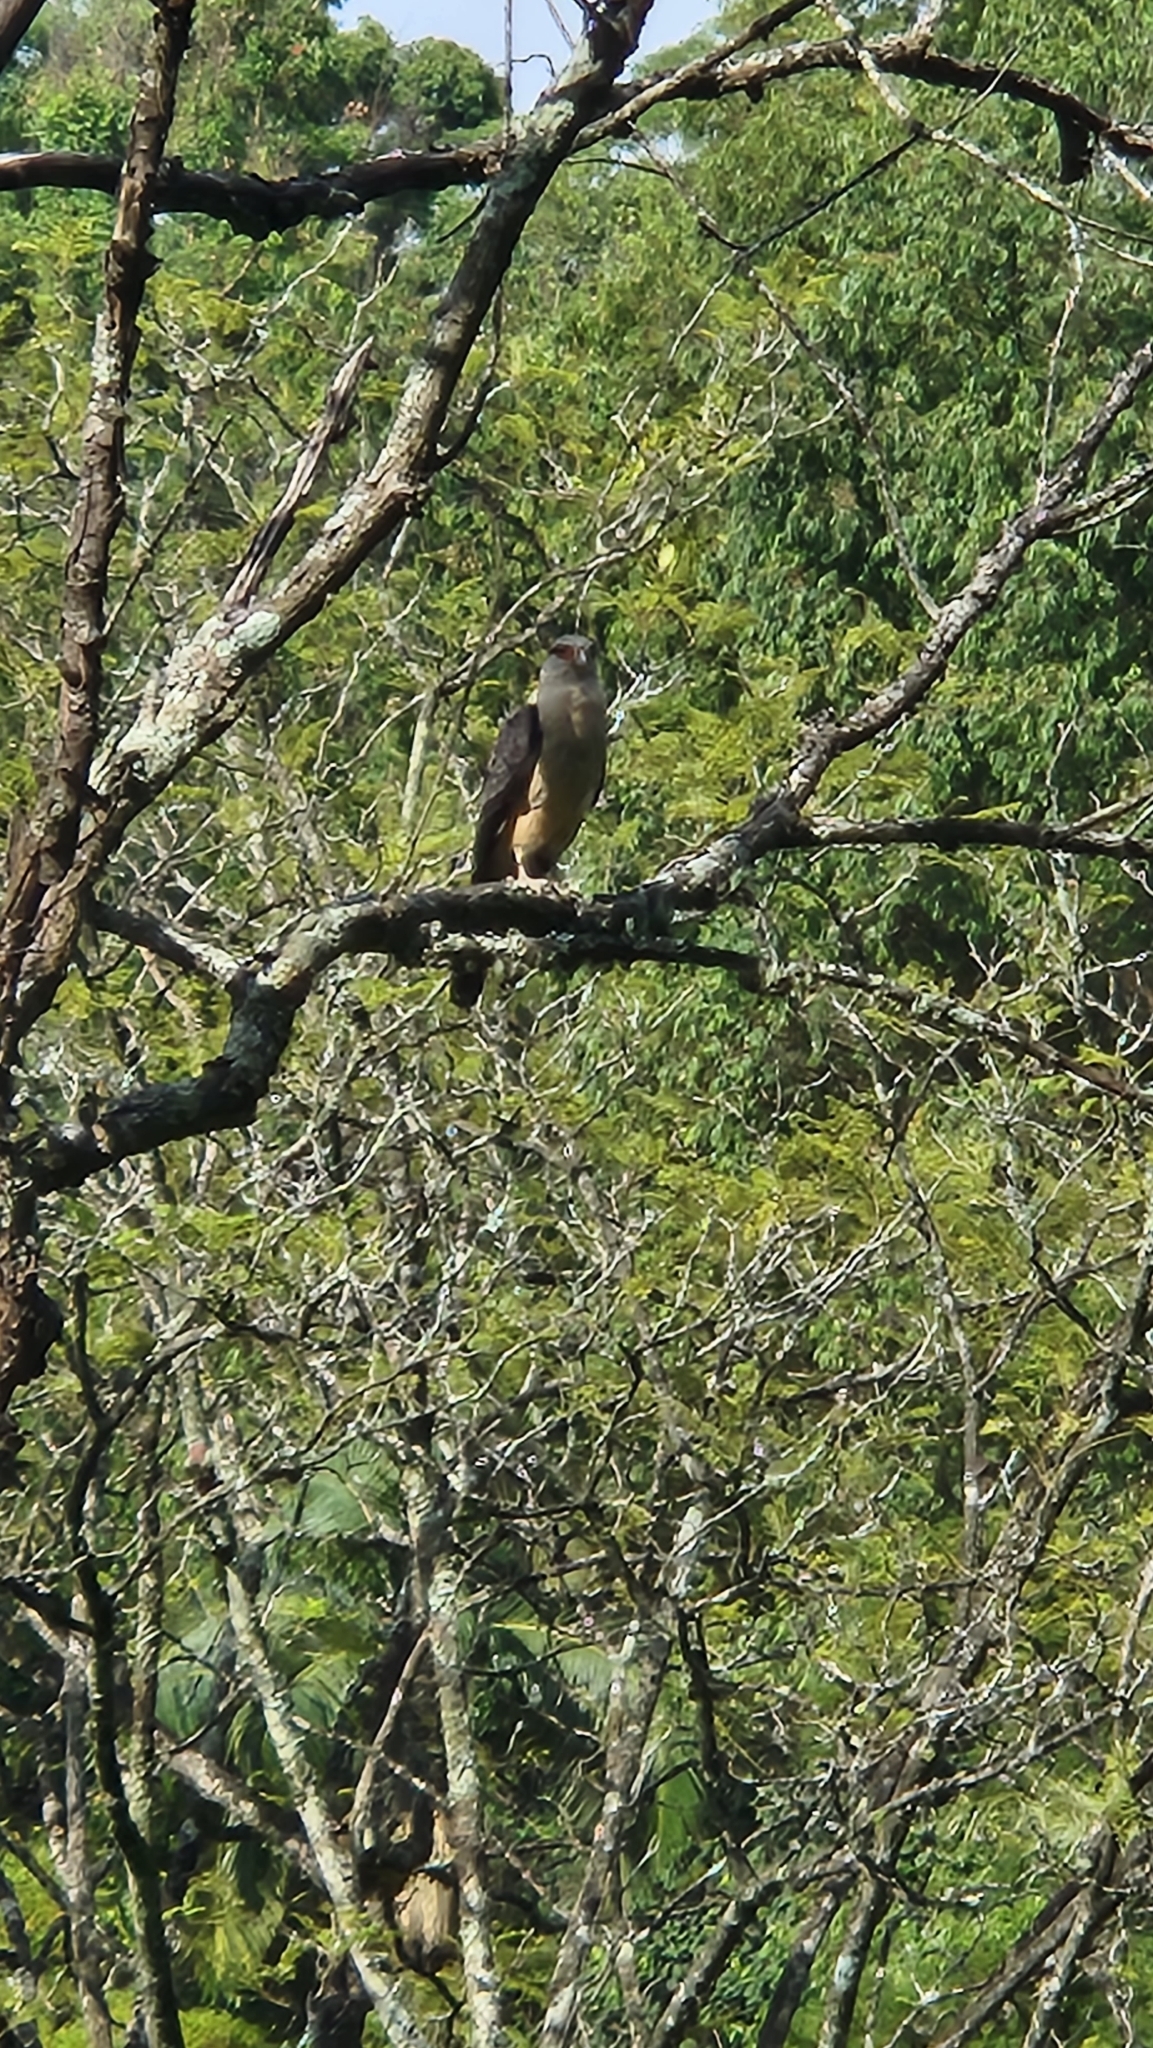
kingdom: Animalia
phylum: Chordata
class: Aves
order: Falconiformes
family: Falconidae
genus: Daptrius
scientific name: Daptrius
